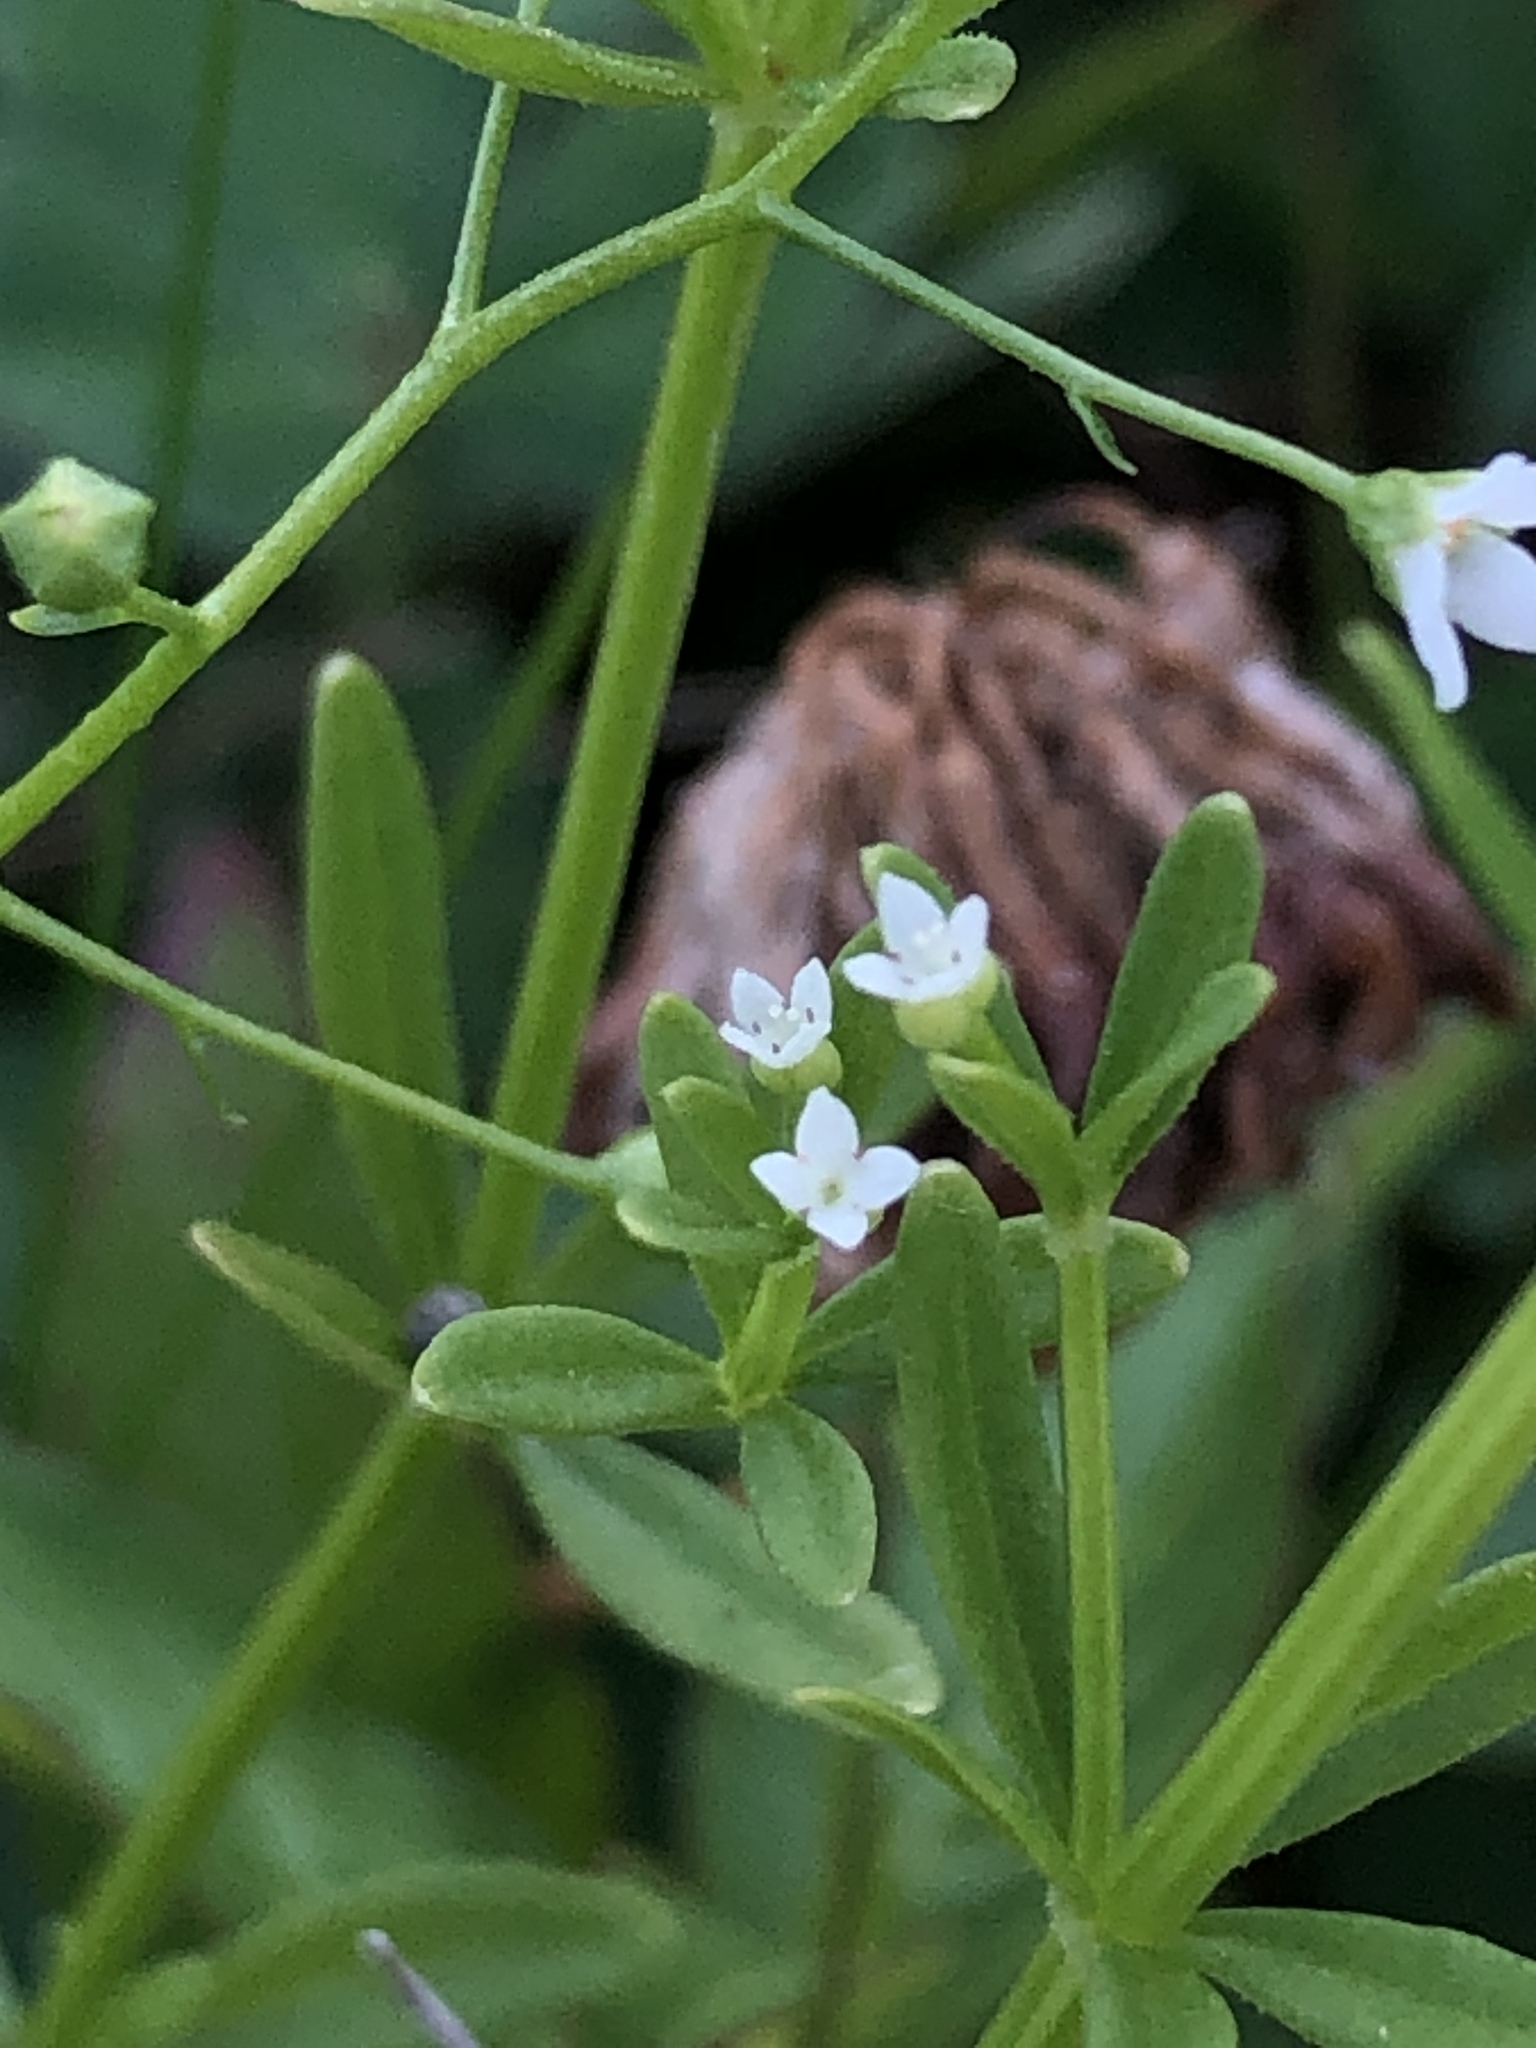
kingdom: Plantae
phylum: Tracheophyta
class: Magnoliopsida
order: Gentianales
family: Rubiaceae
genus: Galium
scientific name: Galium tinctorium
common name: Bedstraw
